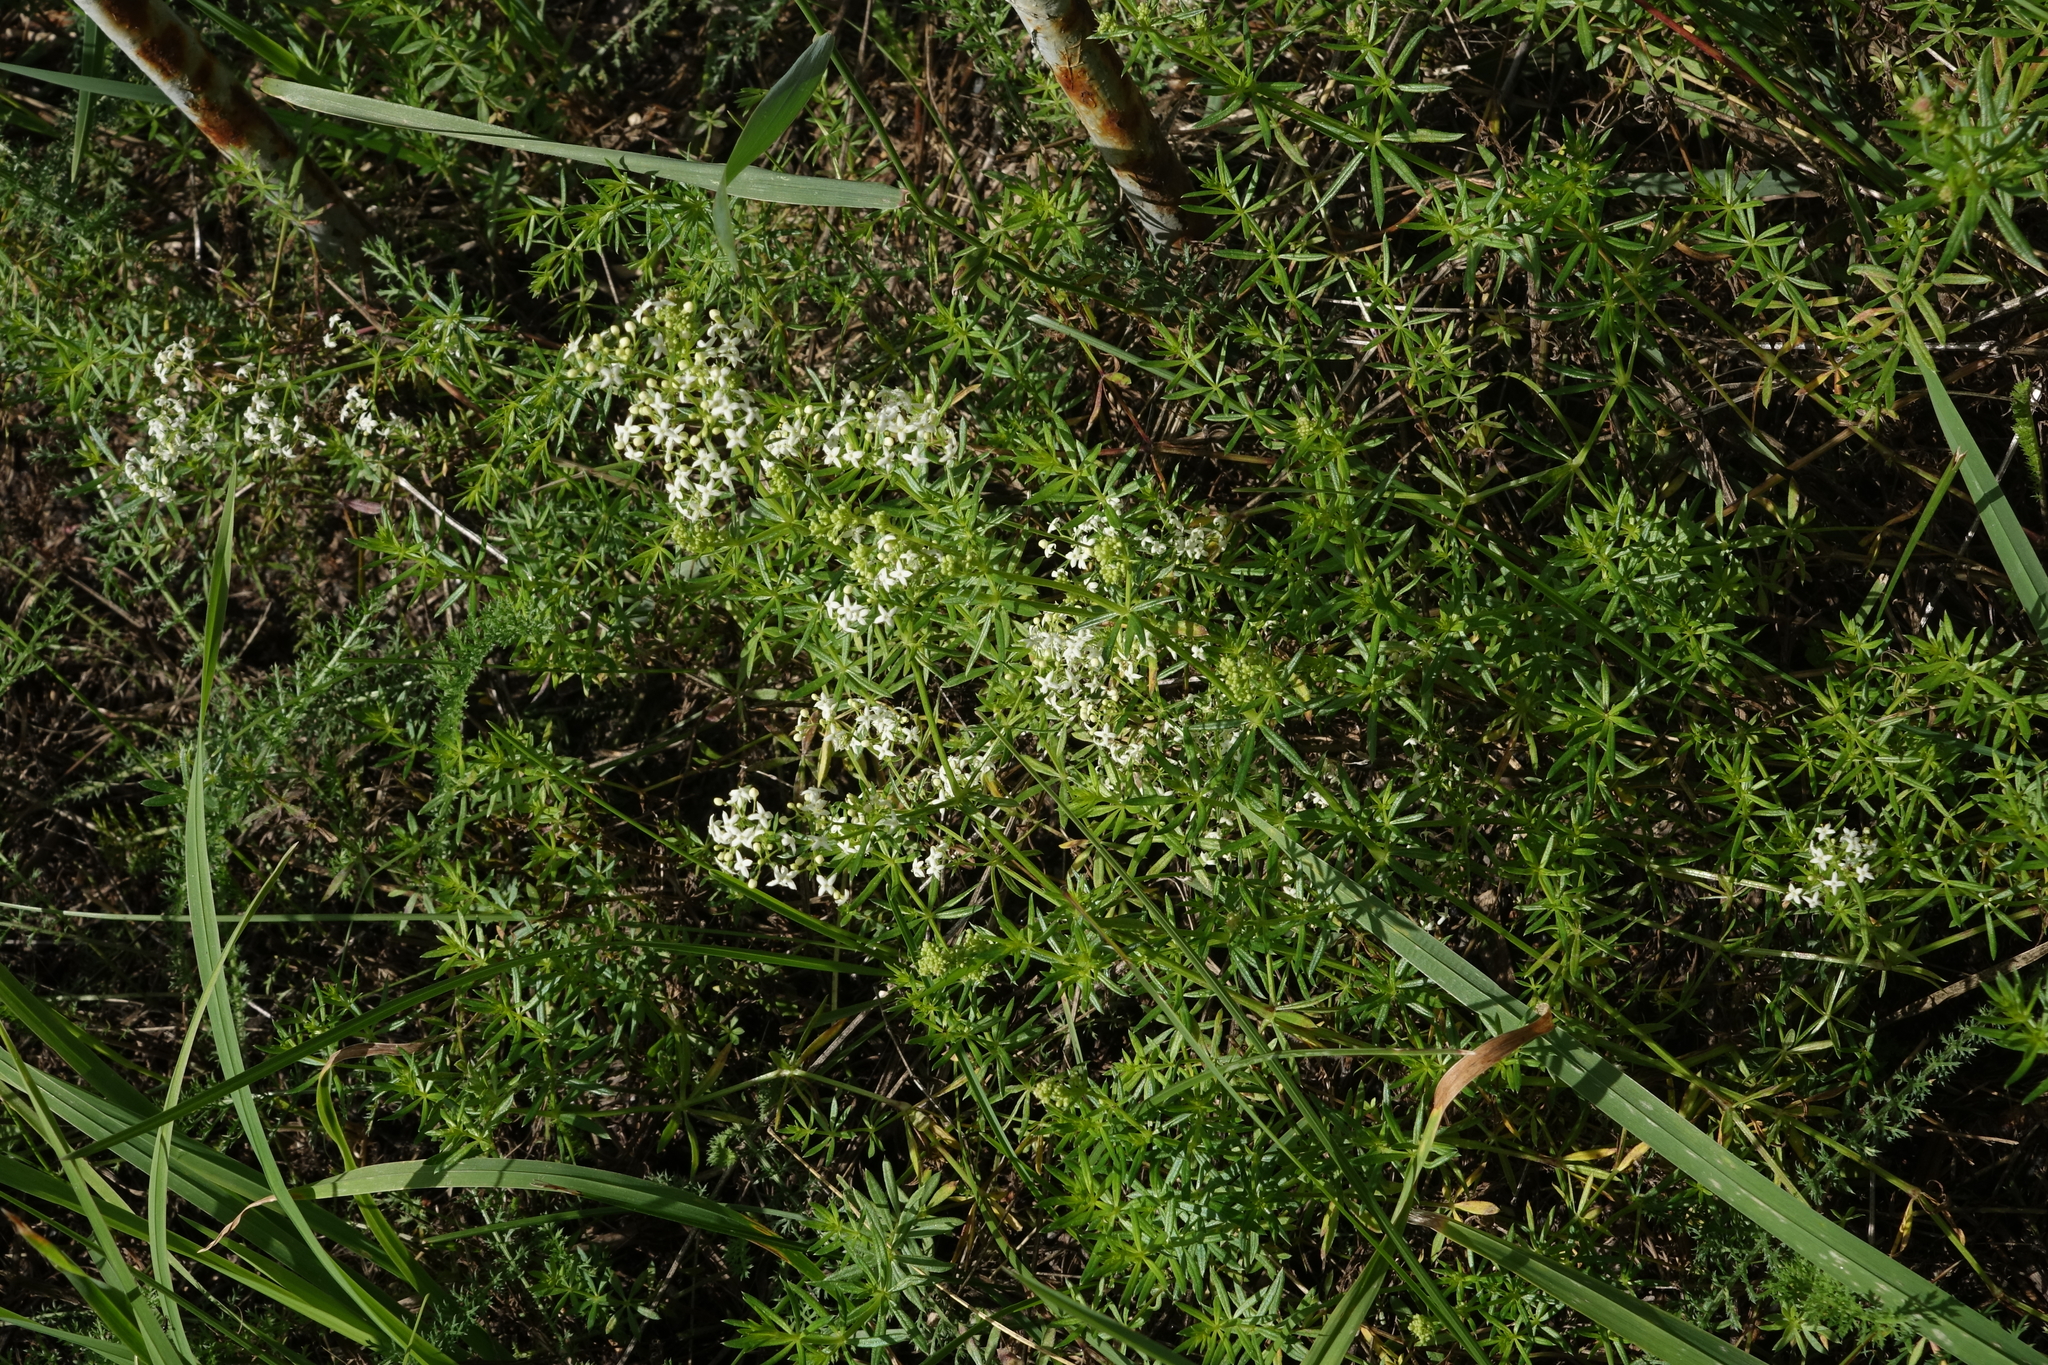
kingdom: Plantae
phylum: Tracheophyta
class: Magnoliopsida
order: Gentianales
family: Rubiaceae
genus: Galium
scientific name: Galium mollugo
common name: Hedge bedstraw
